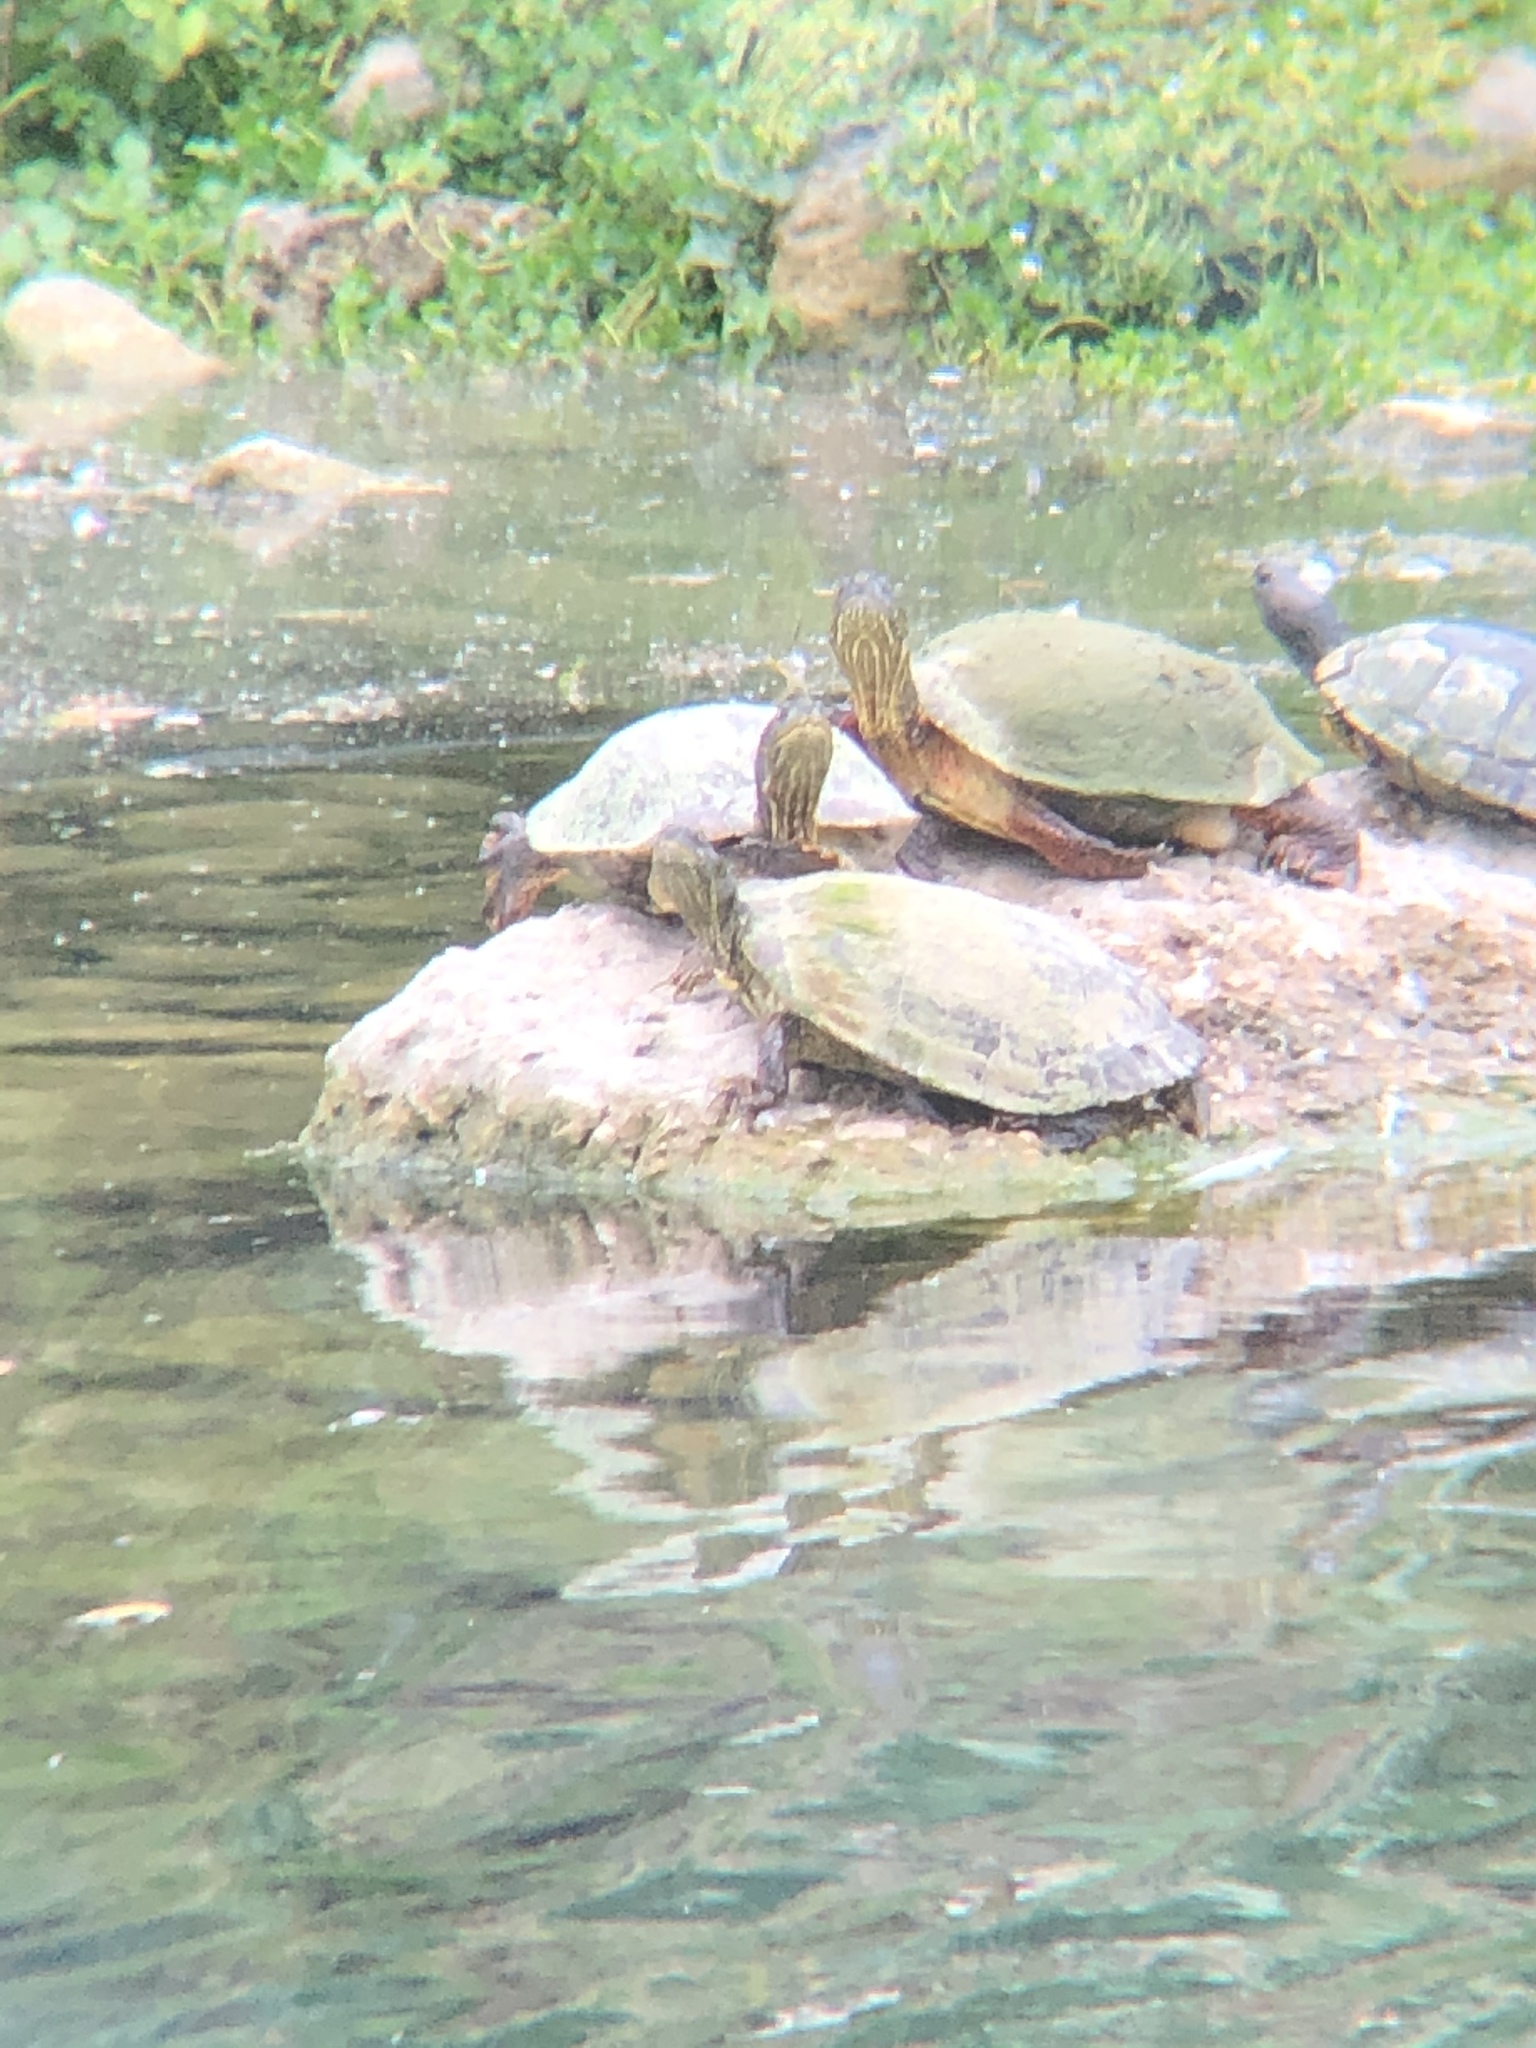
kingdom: Animalia
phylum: Chordata
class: Testudines
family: Emydidae
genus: Pseudemys
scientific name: Pseudemys texana
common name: Texas river cooter
